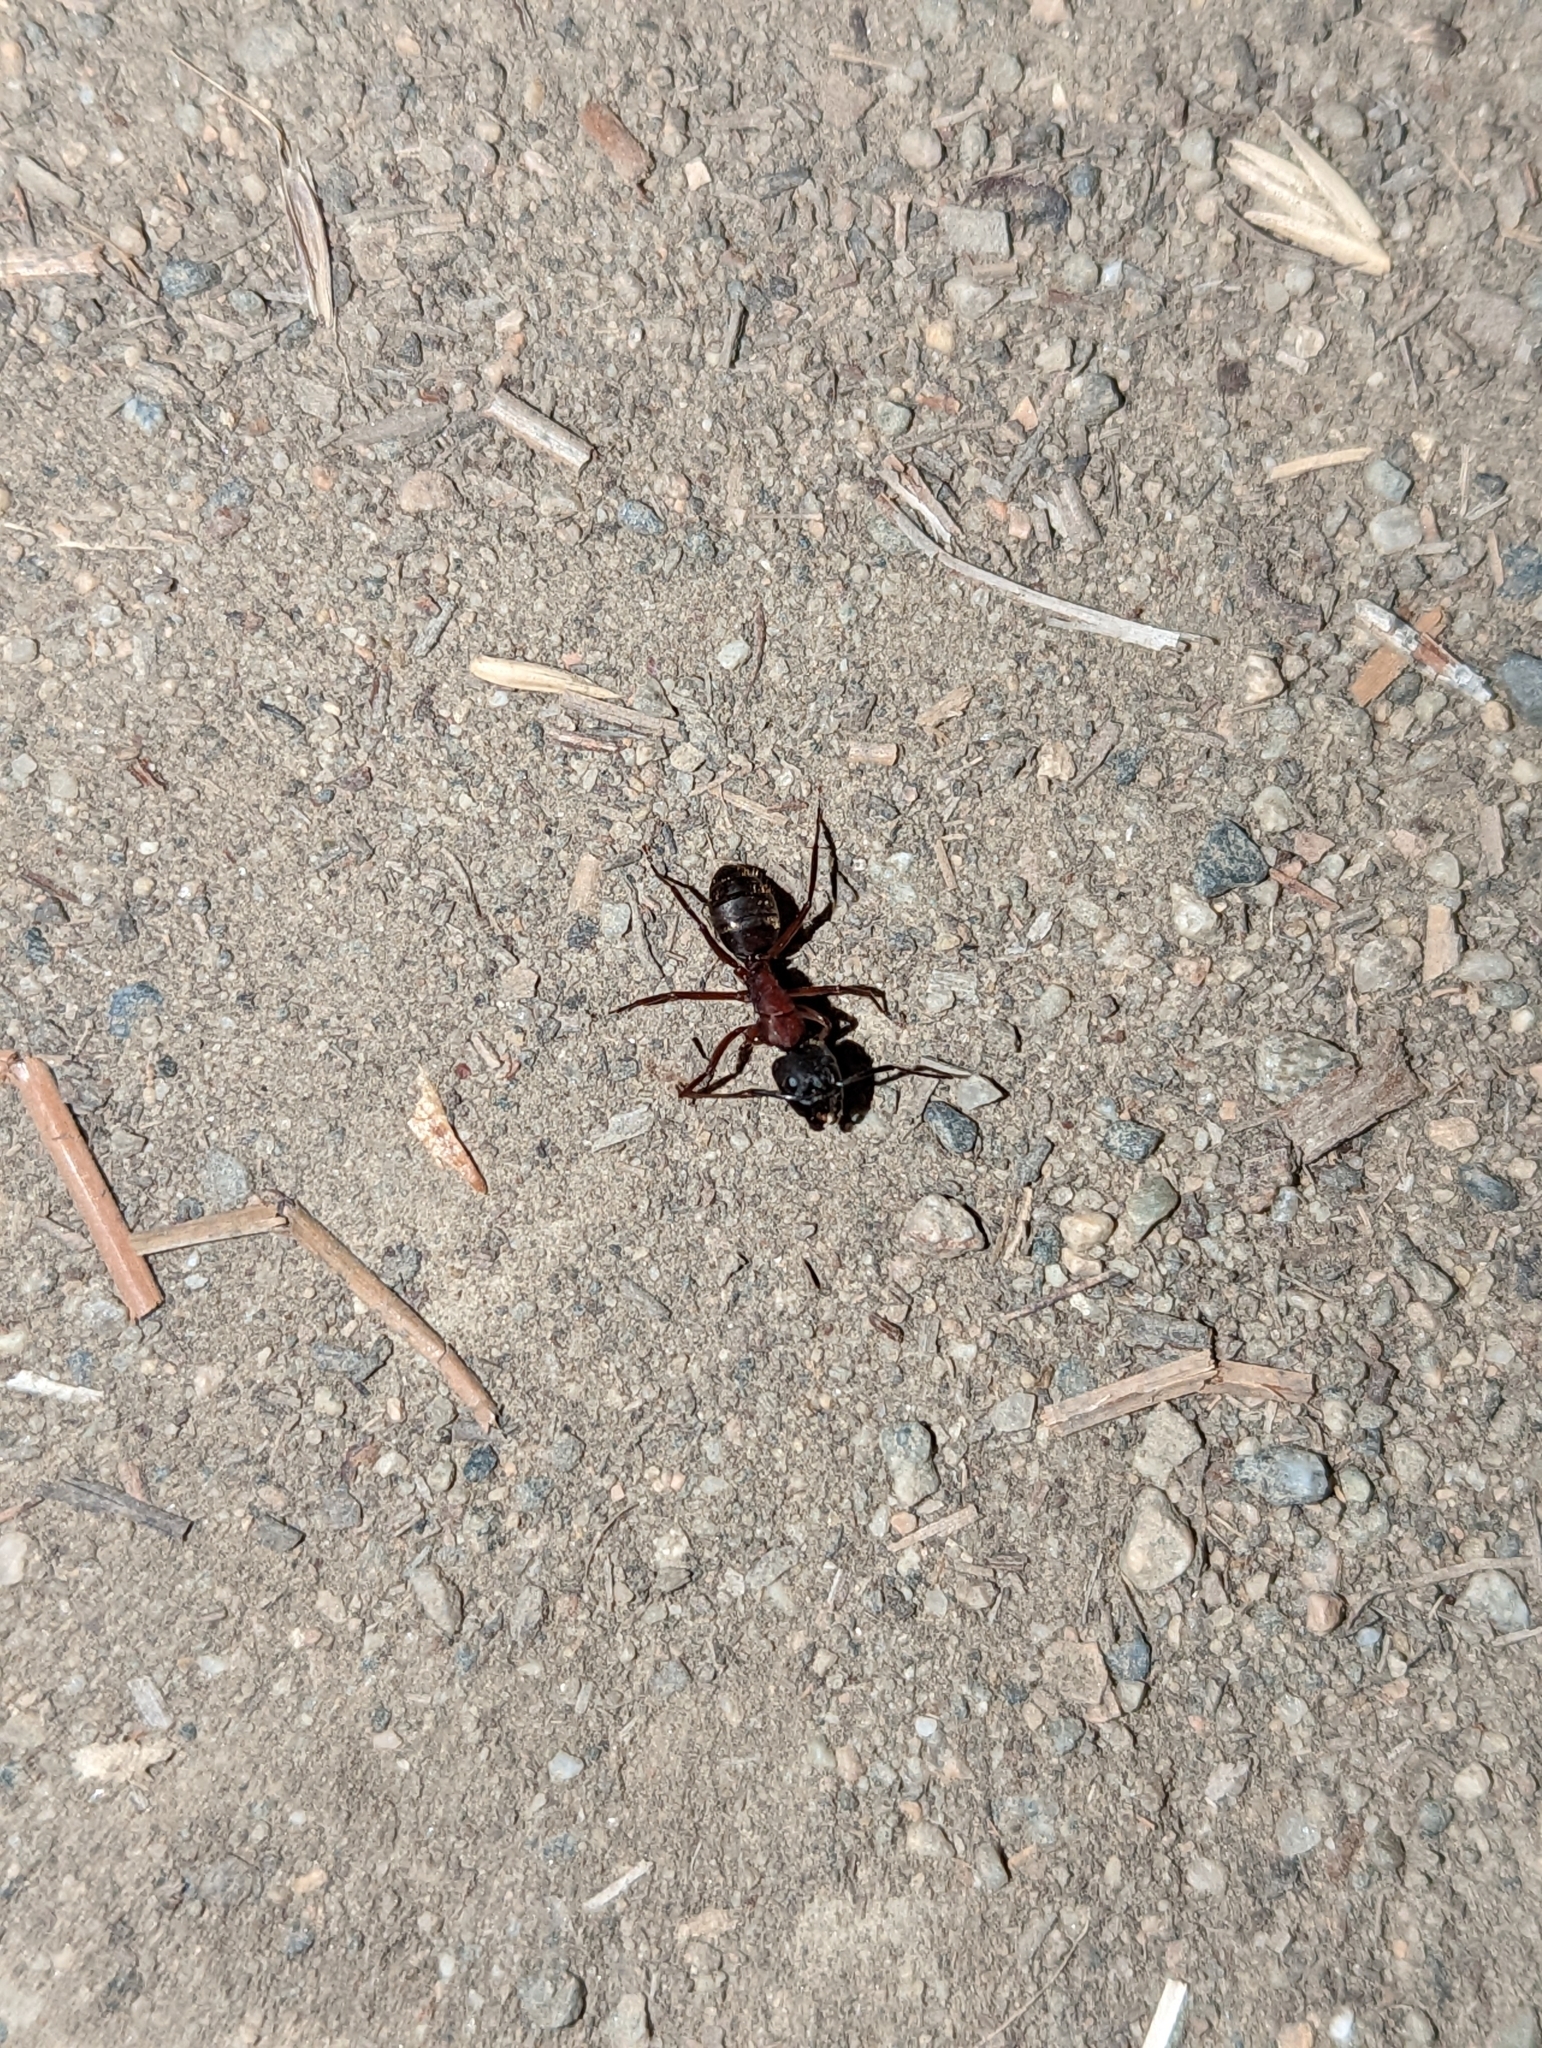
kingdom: Animalia
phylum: Arthropoda
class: Insecta
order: Hymenoptera
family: Formicidae
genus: Camponotus
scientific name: Camponotus vicinus
